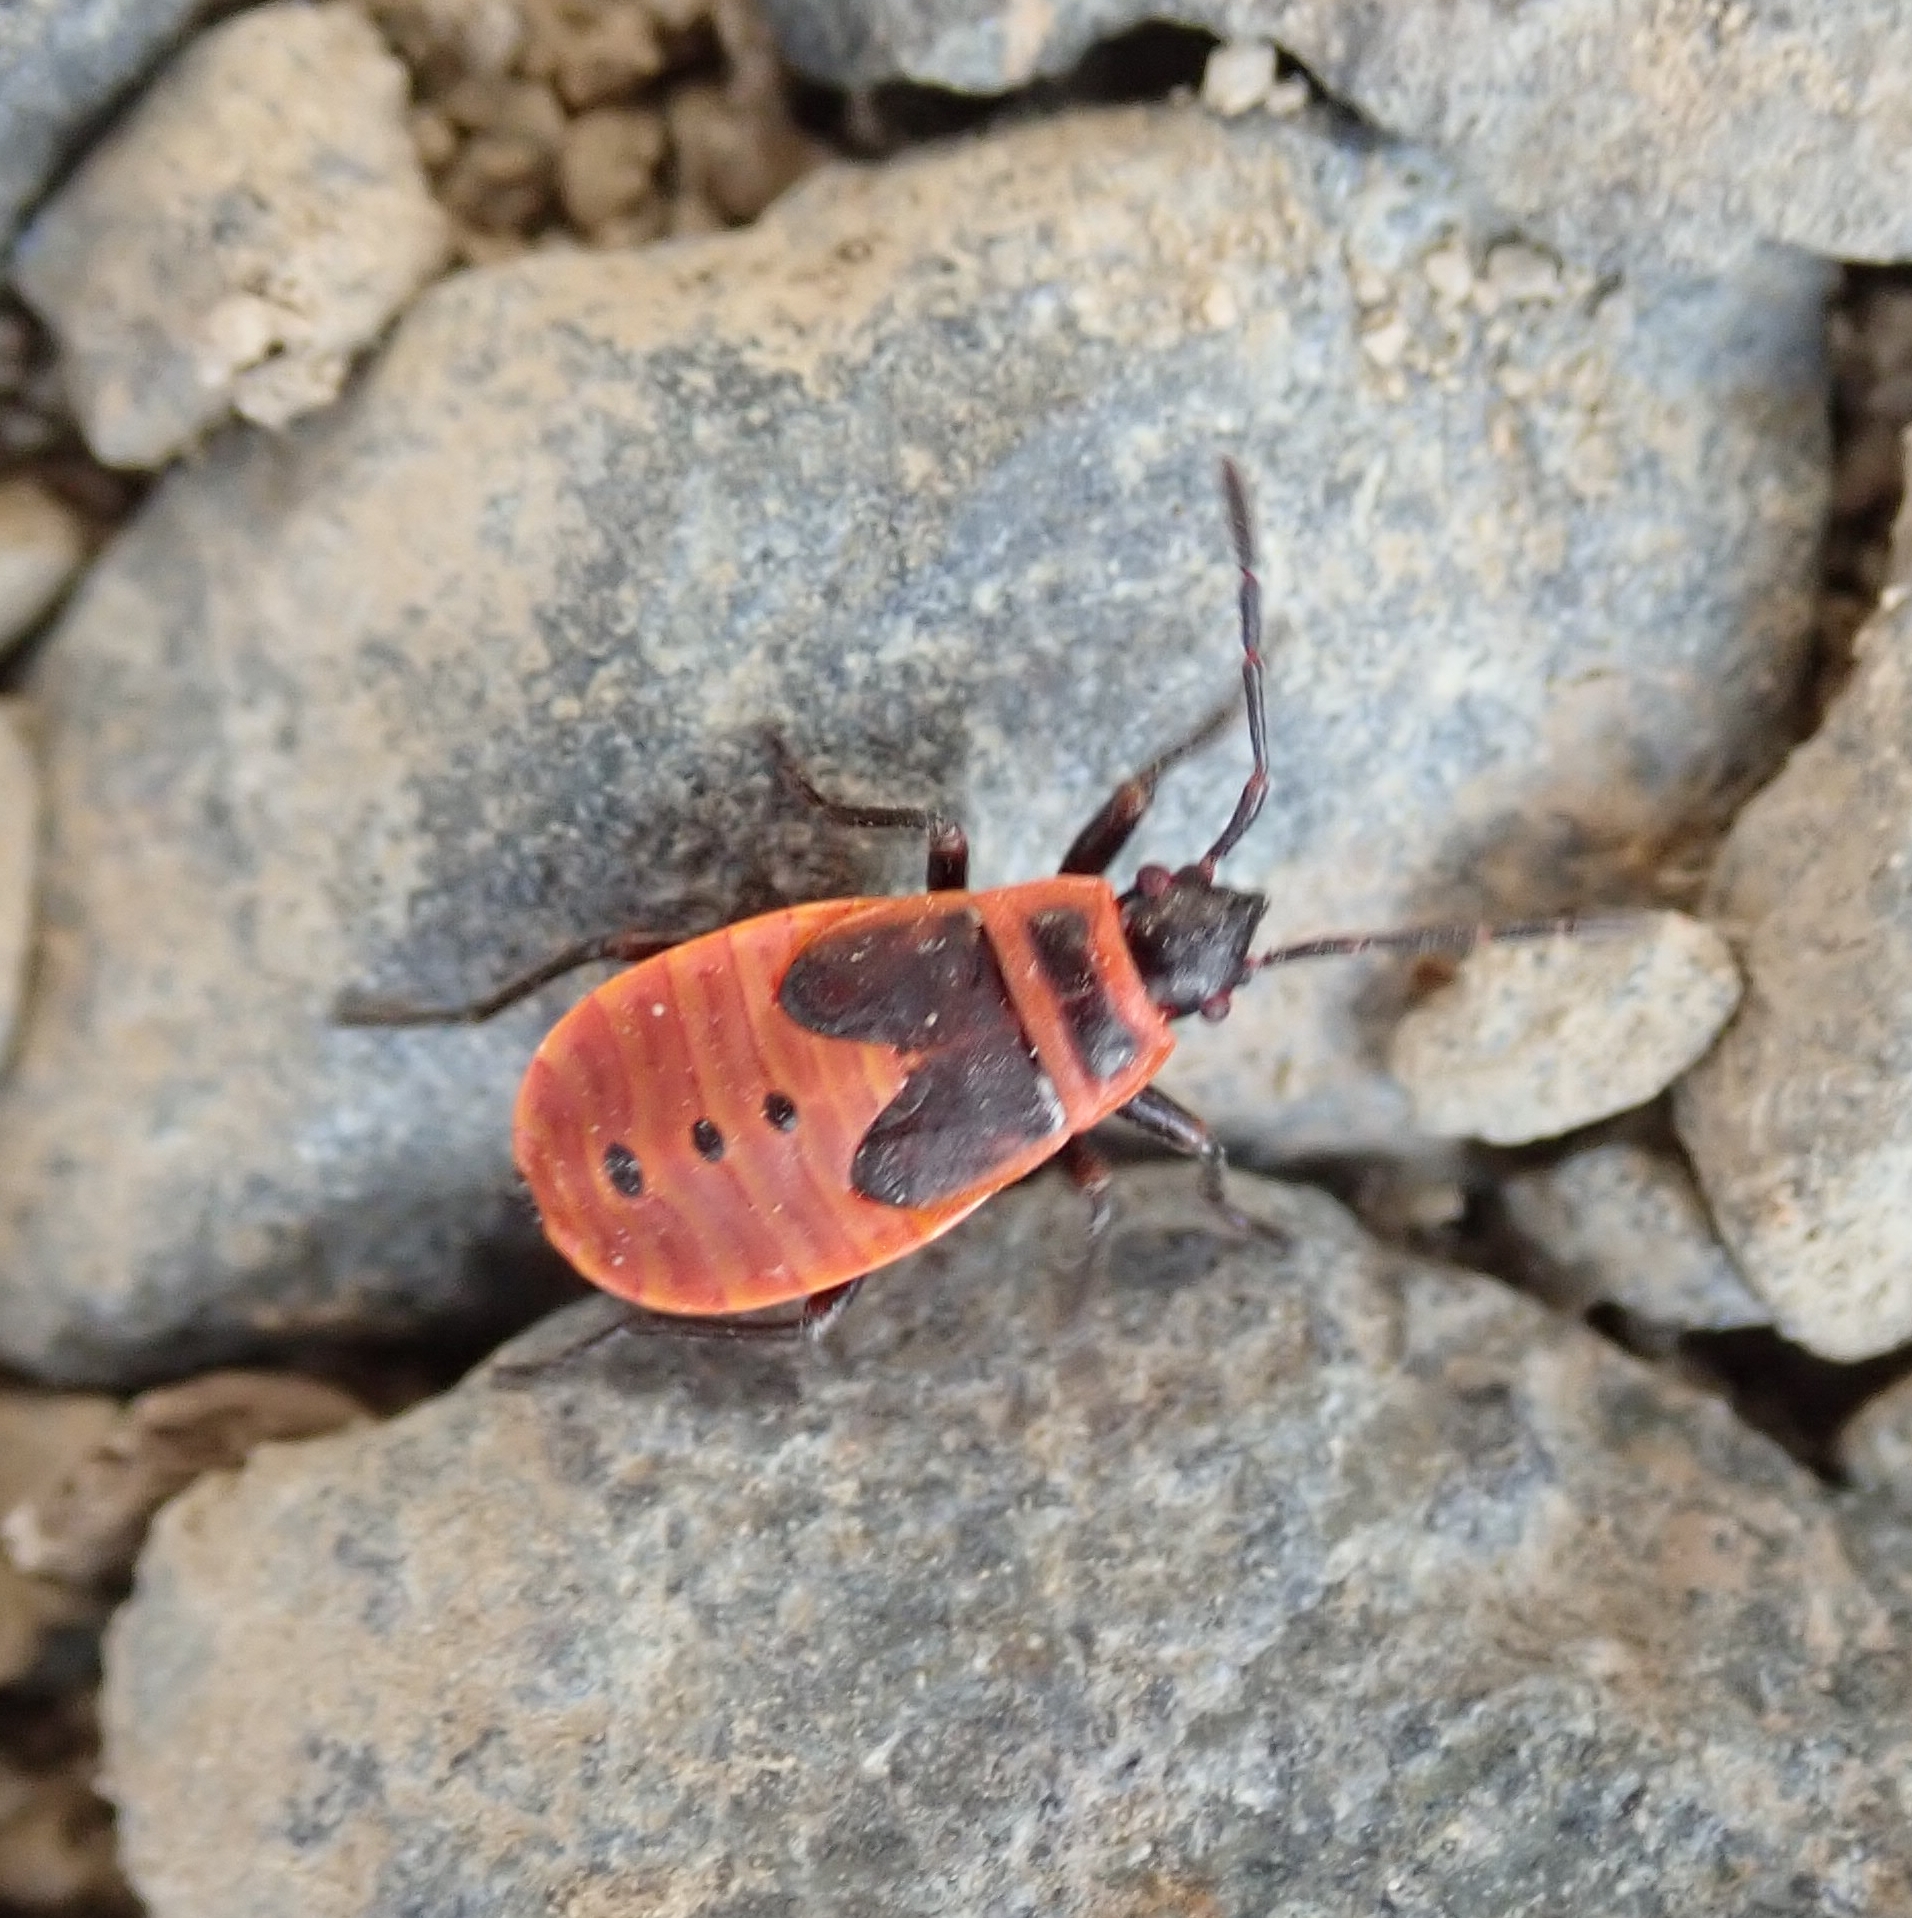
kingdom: Animalia
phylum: Arthropoda
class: Insecta
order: Hemiptera
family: Pyrrhocoridae
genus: Pyrrhocoris
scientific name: Pyrrhocoris apterus
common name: Firebug
